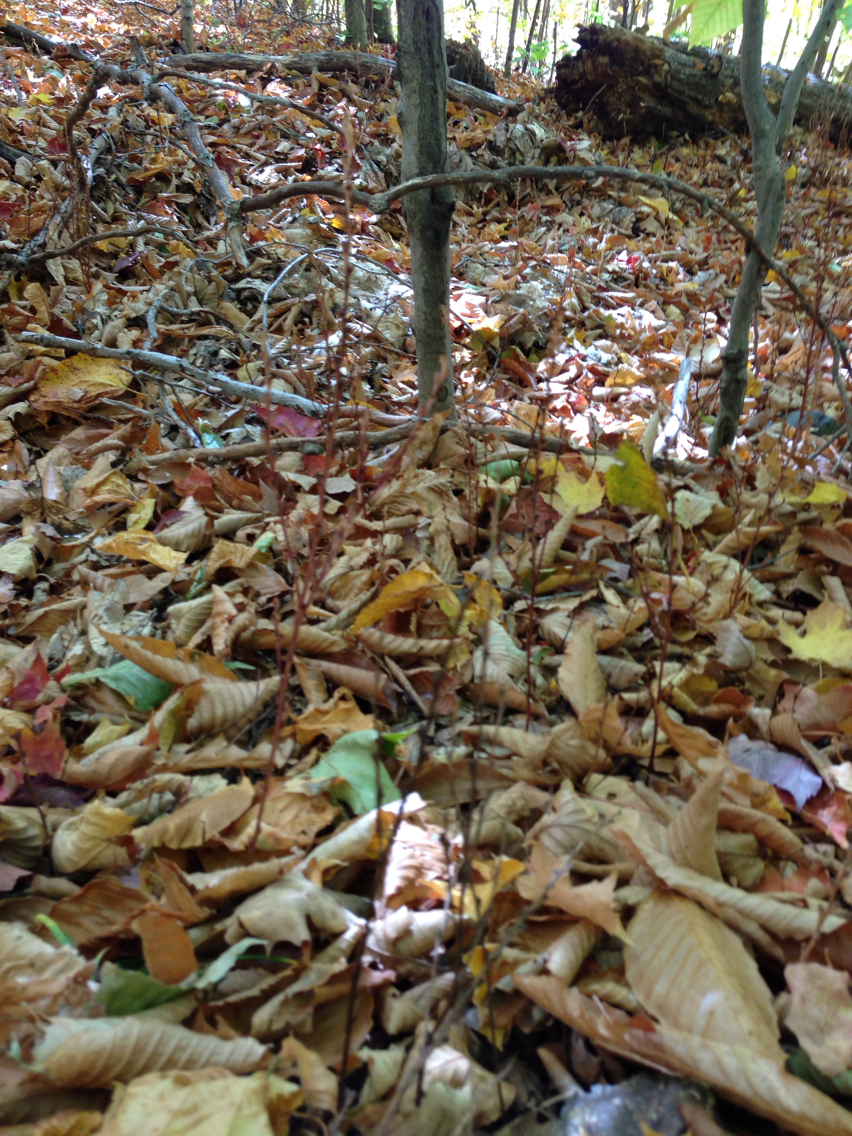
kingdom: Plantae
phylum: Tracheophyta
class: Magnoliopsida
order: Lamiales
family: Orobanchaceae
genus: Epifagus
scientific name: Epifagus virginiana
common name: Beechdrops
